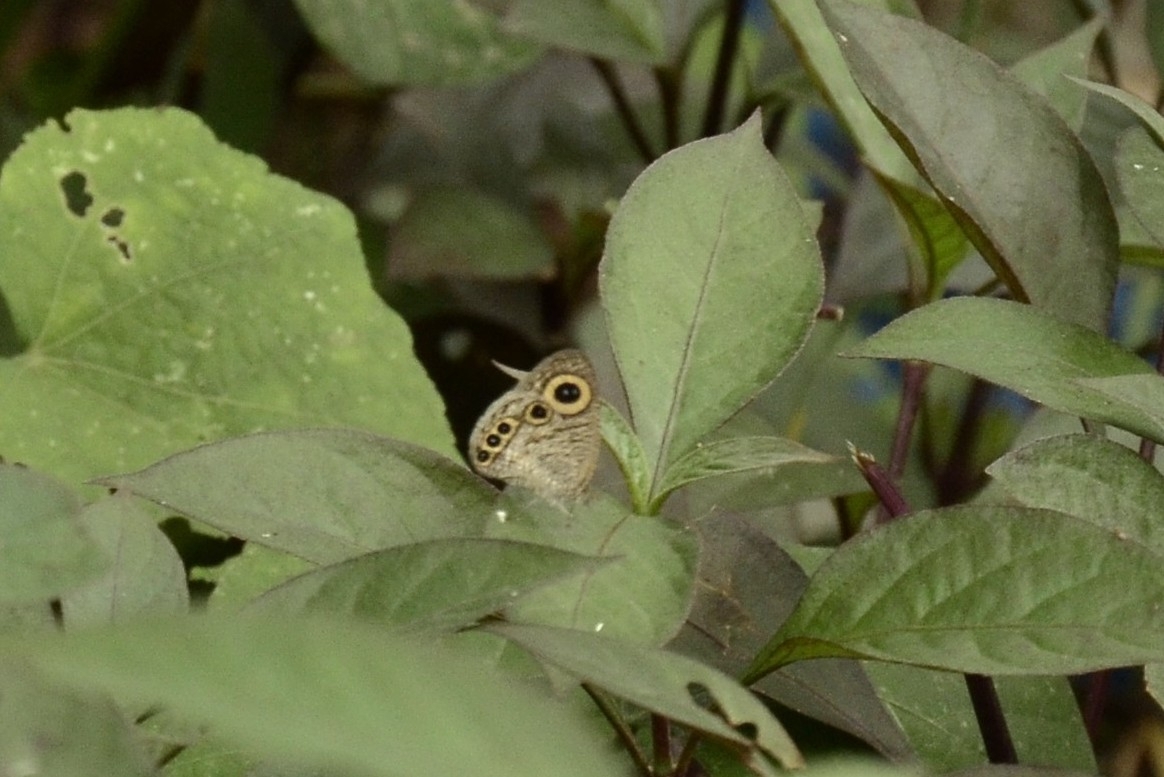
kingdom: Animalia
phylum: Arthropoda
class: Insecta
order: Lepidoptera
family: Nymphalidae
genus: Ypthima
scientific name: Ypthima huebneri
